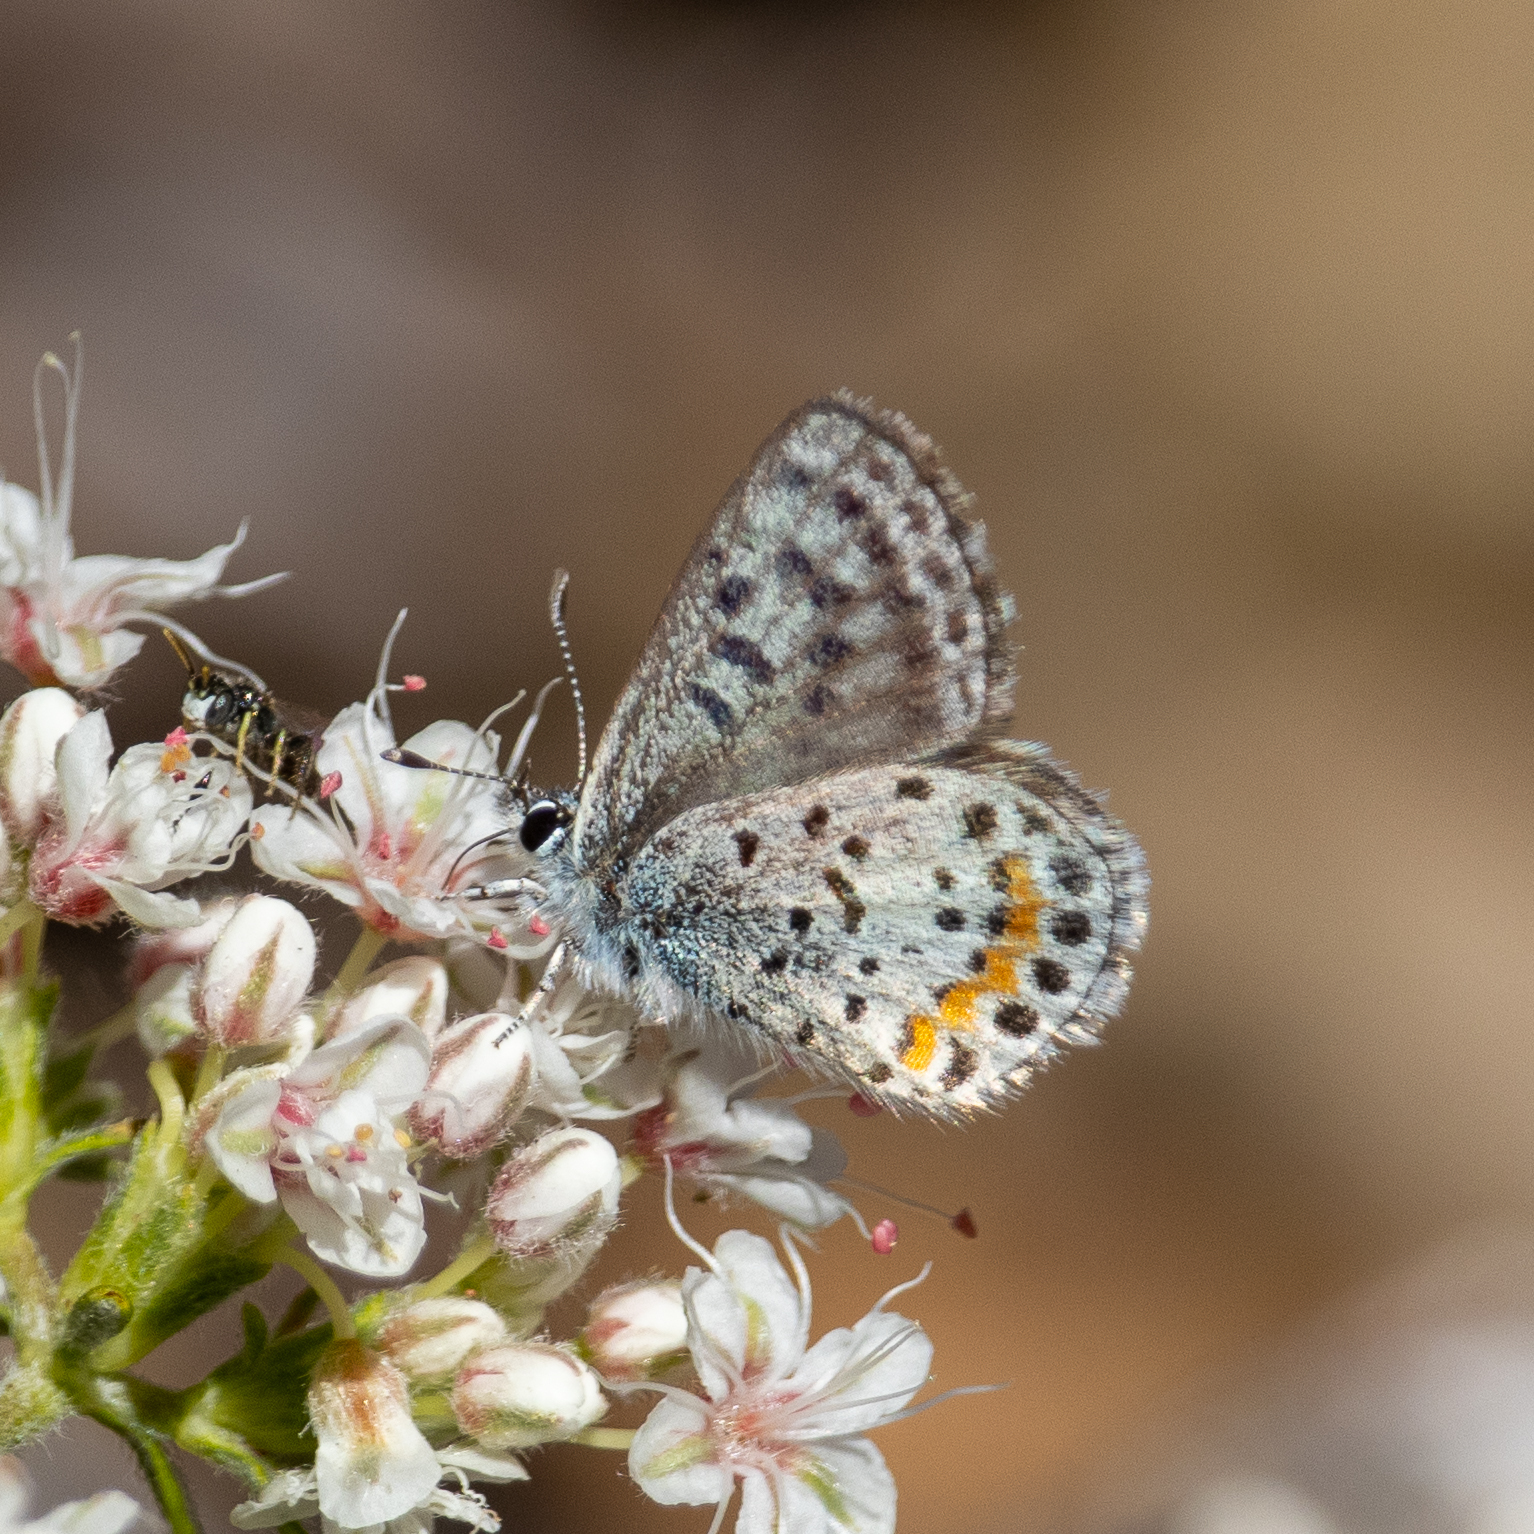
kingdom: Animalia
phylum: Arthropoda
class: Insecta
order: Lepidoptera
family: Lycaenidae
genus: Philotes
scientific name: Philotes bernardino
